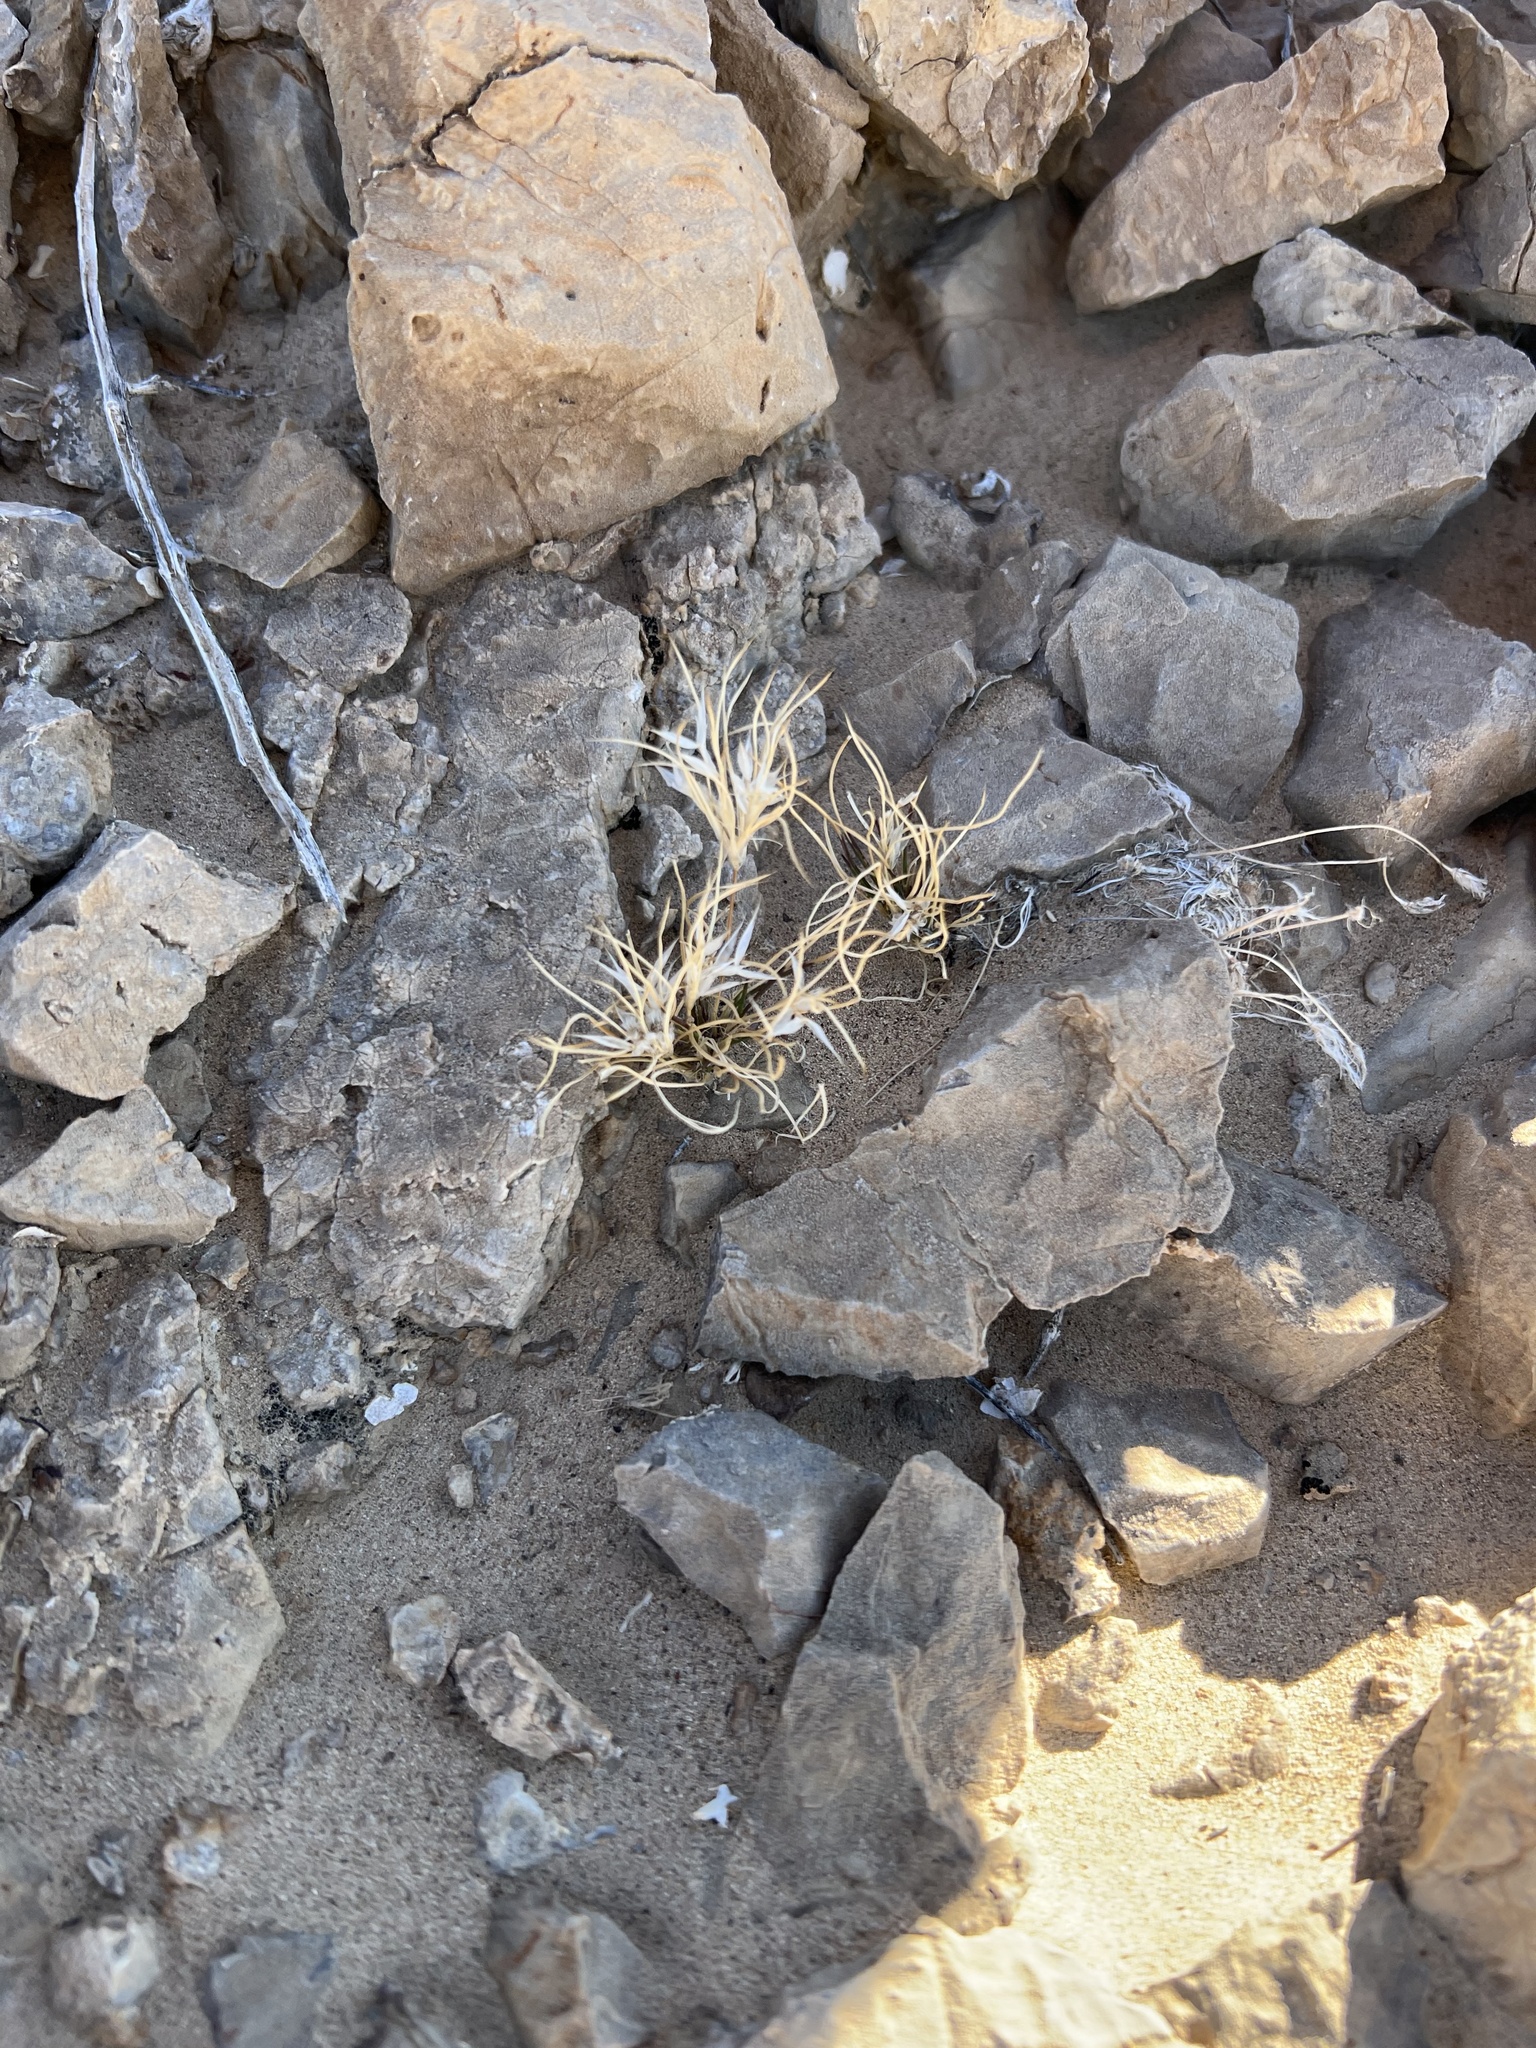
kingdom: Plantae
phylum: Tracheophyta
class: Liliopsida
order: Poales
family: Poaceae
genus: Dasyochloa
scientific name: Dasyochloa pulchella
